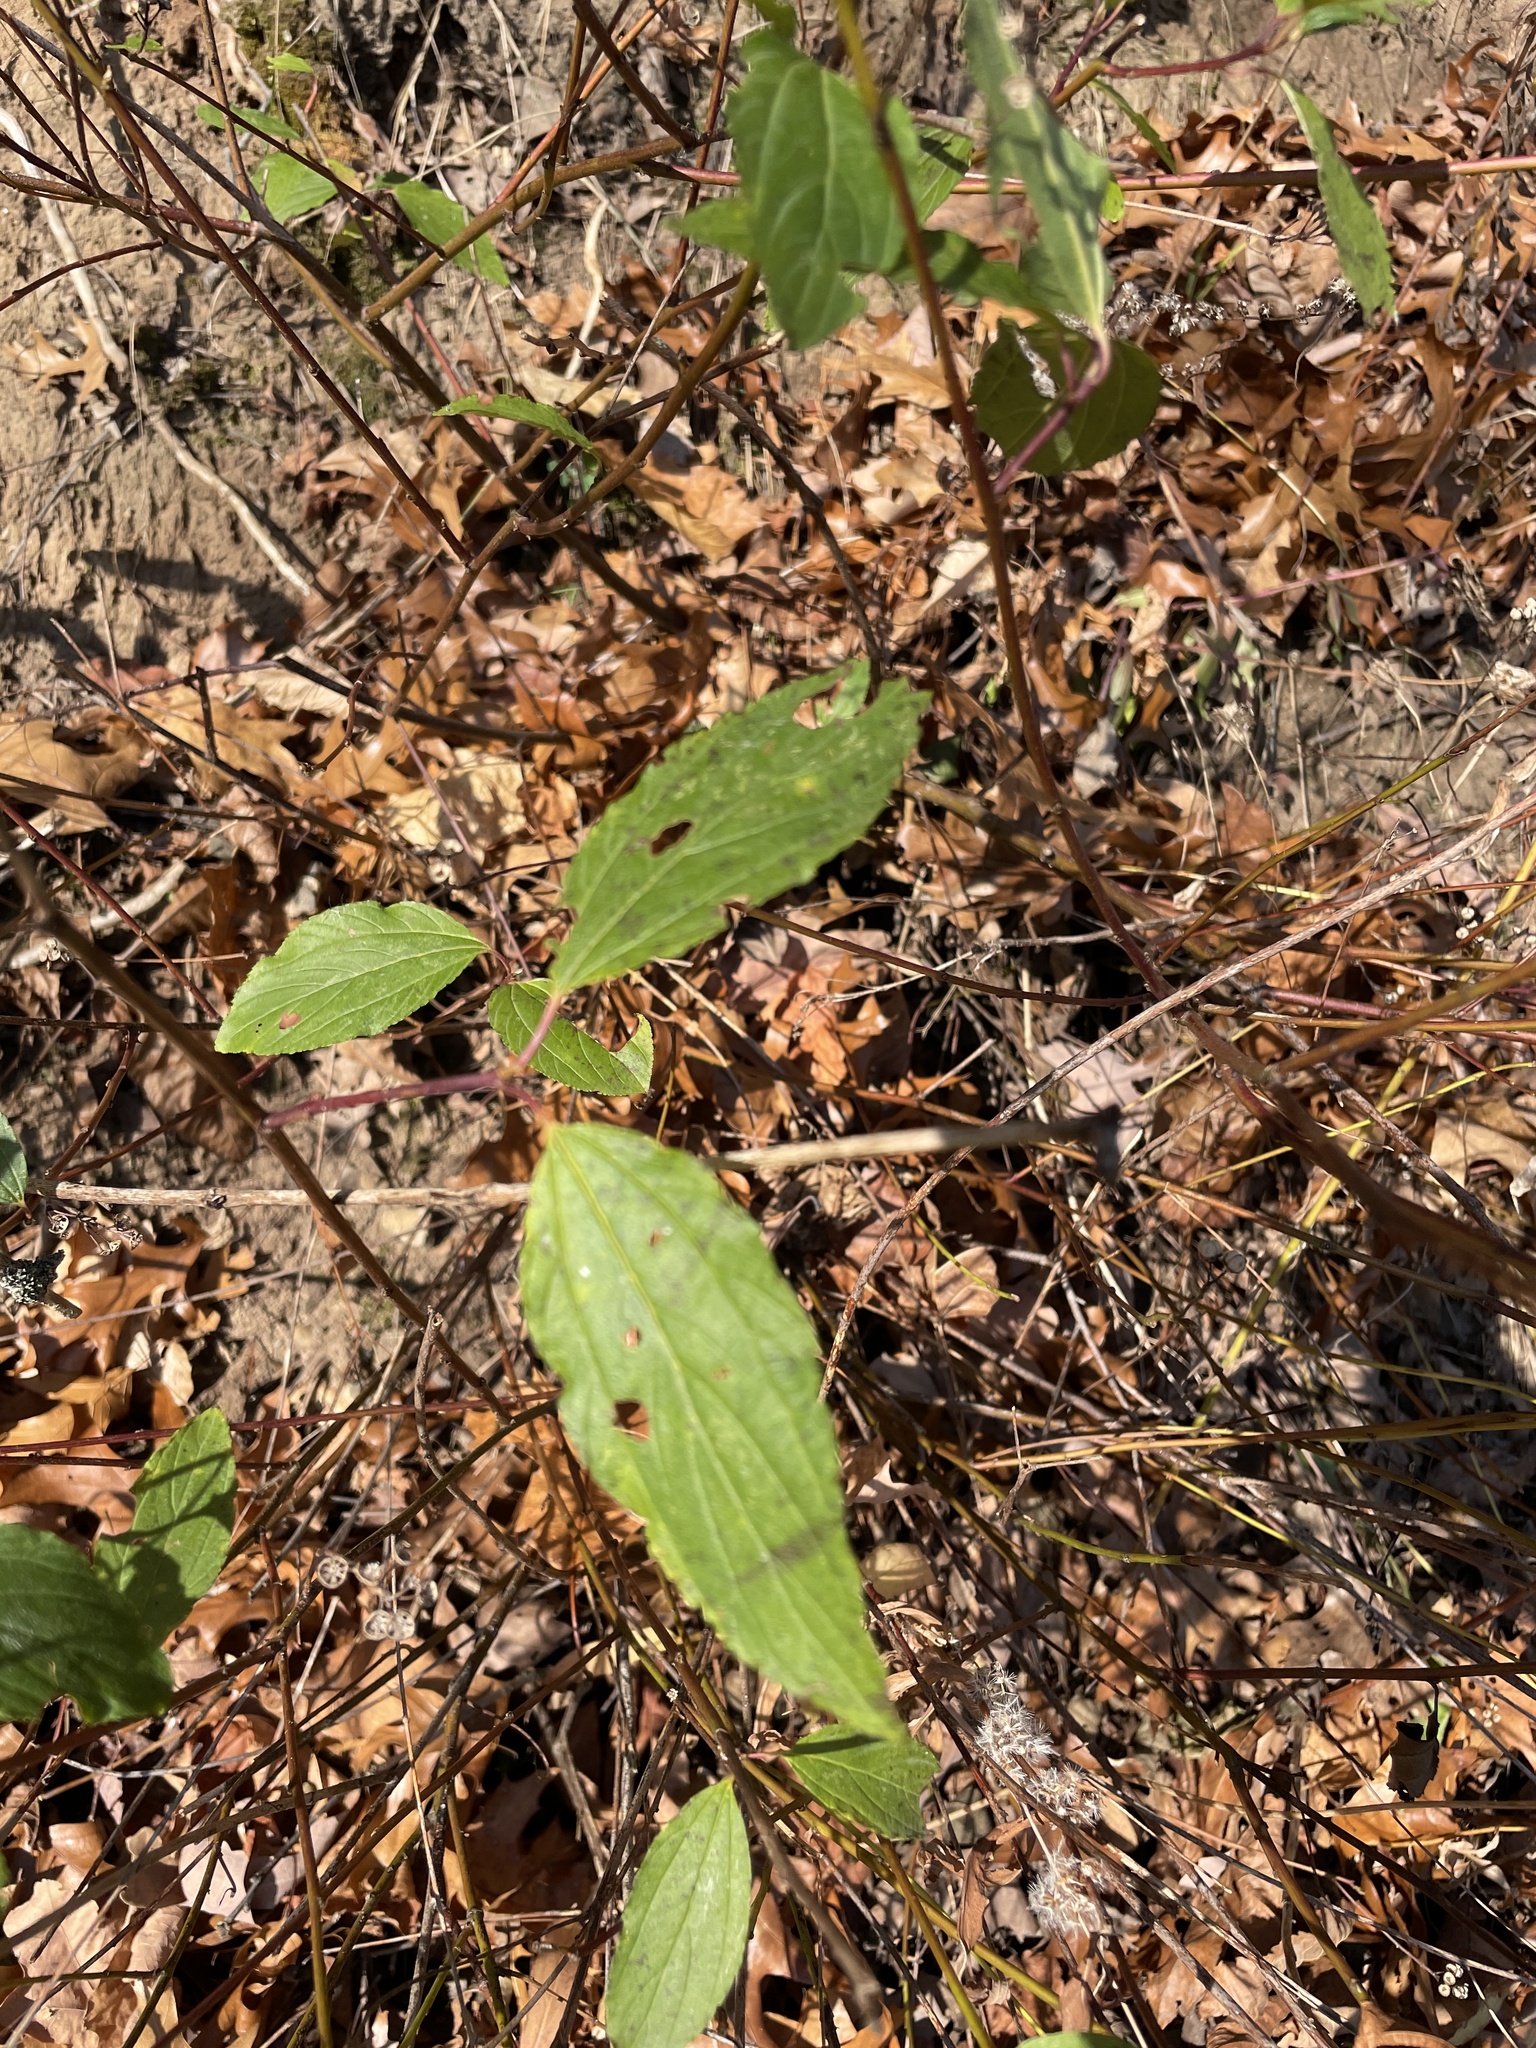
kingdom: Plantae
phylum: Tracheophyta
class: Magnoliopsida
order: Rosales
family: Rhamnaceae
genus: Ceanothus
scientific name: Ceanothus americanus
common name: Redroot
